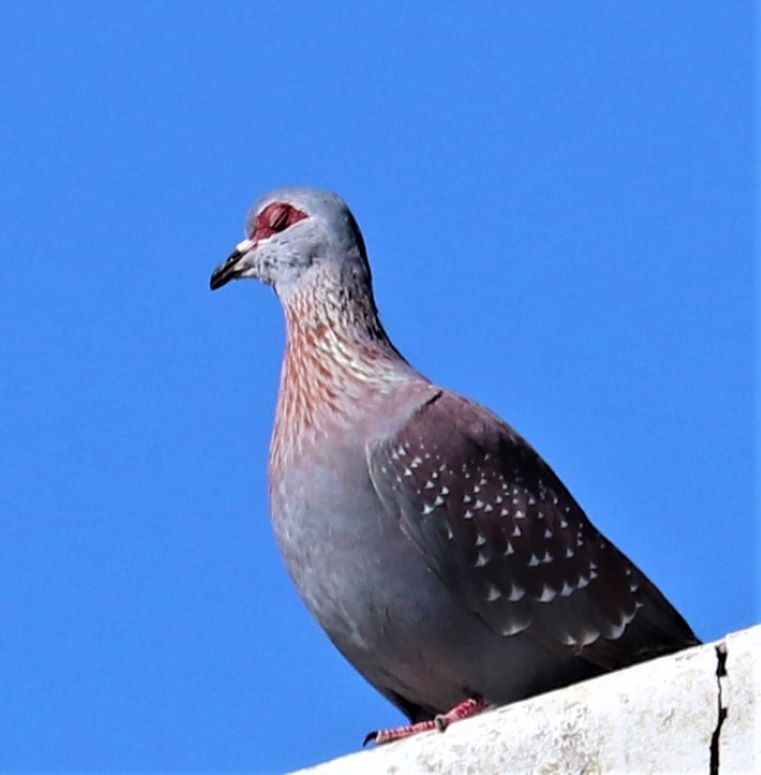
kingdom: Animalia
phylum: Chordata
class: Aves
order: Columbiformes
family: Columbidae
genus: Columba
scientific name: Columba guinea
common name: Speckled pigeon
